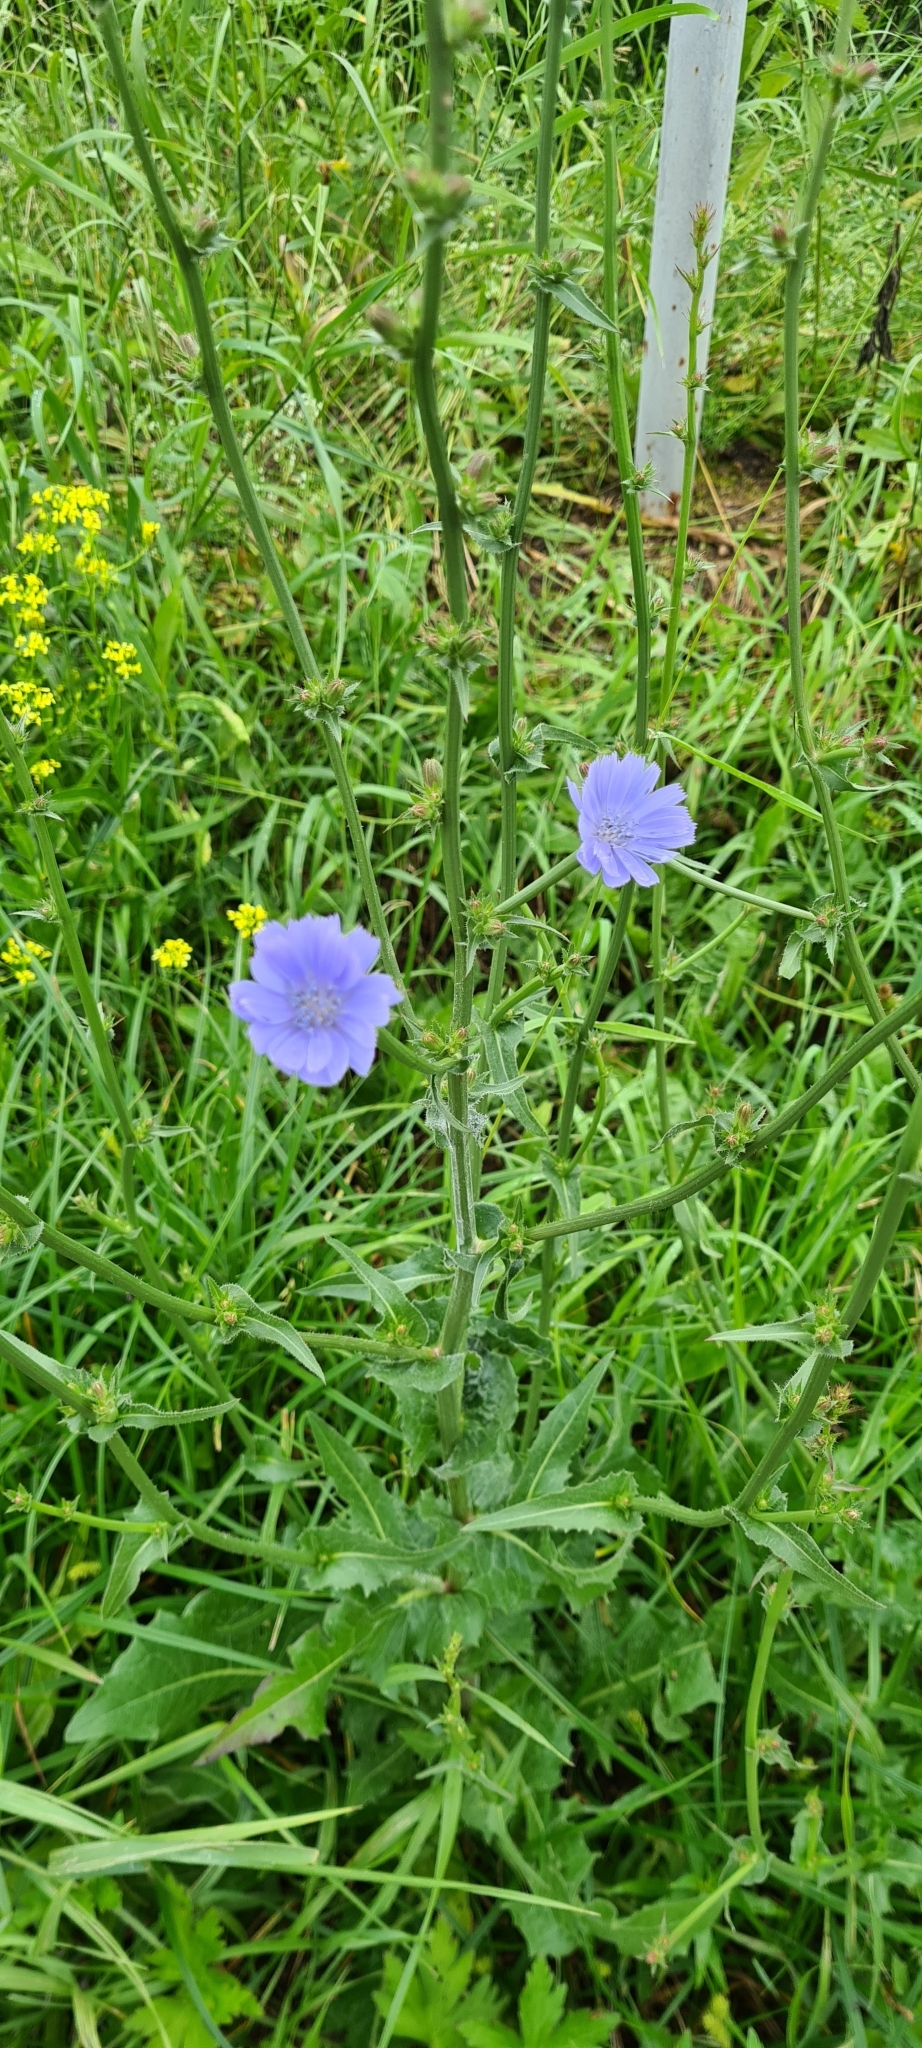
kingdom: Plantae
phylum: Tracheophyta
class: Magnoliopsida
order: Asterales
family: Asteraceae
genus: Cichorium
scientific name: Cichorium intybus
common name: Chicory
